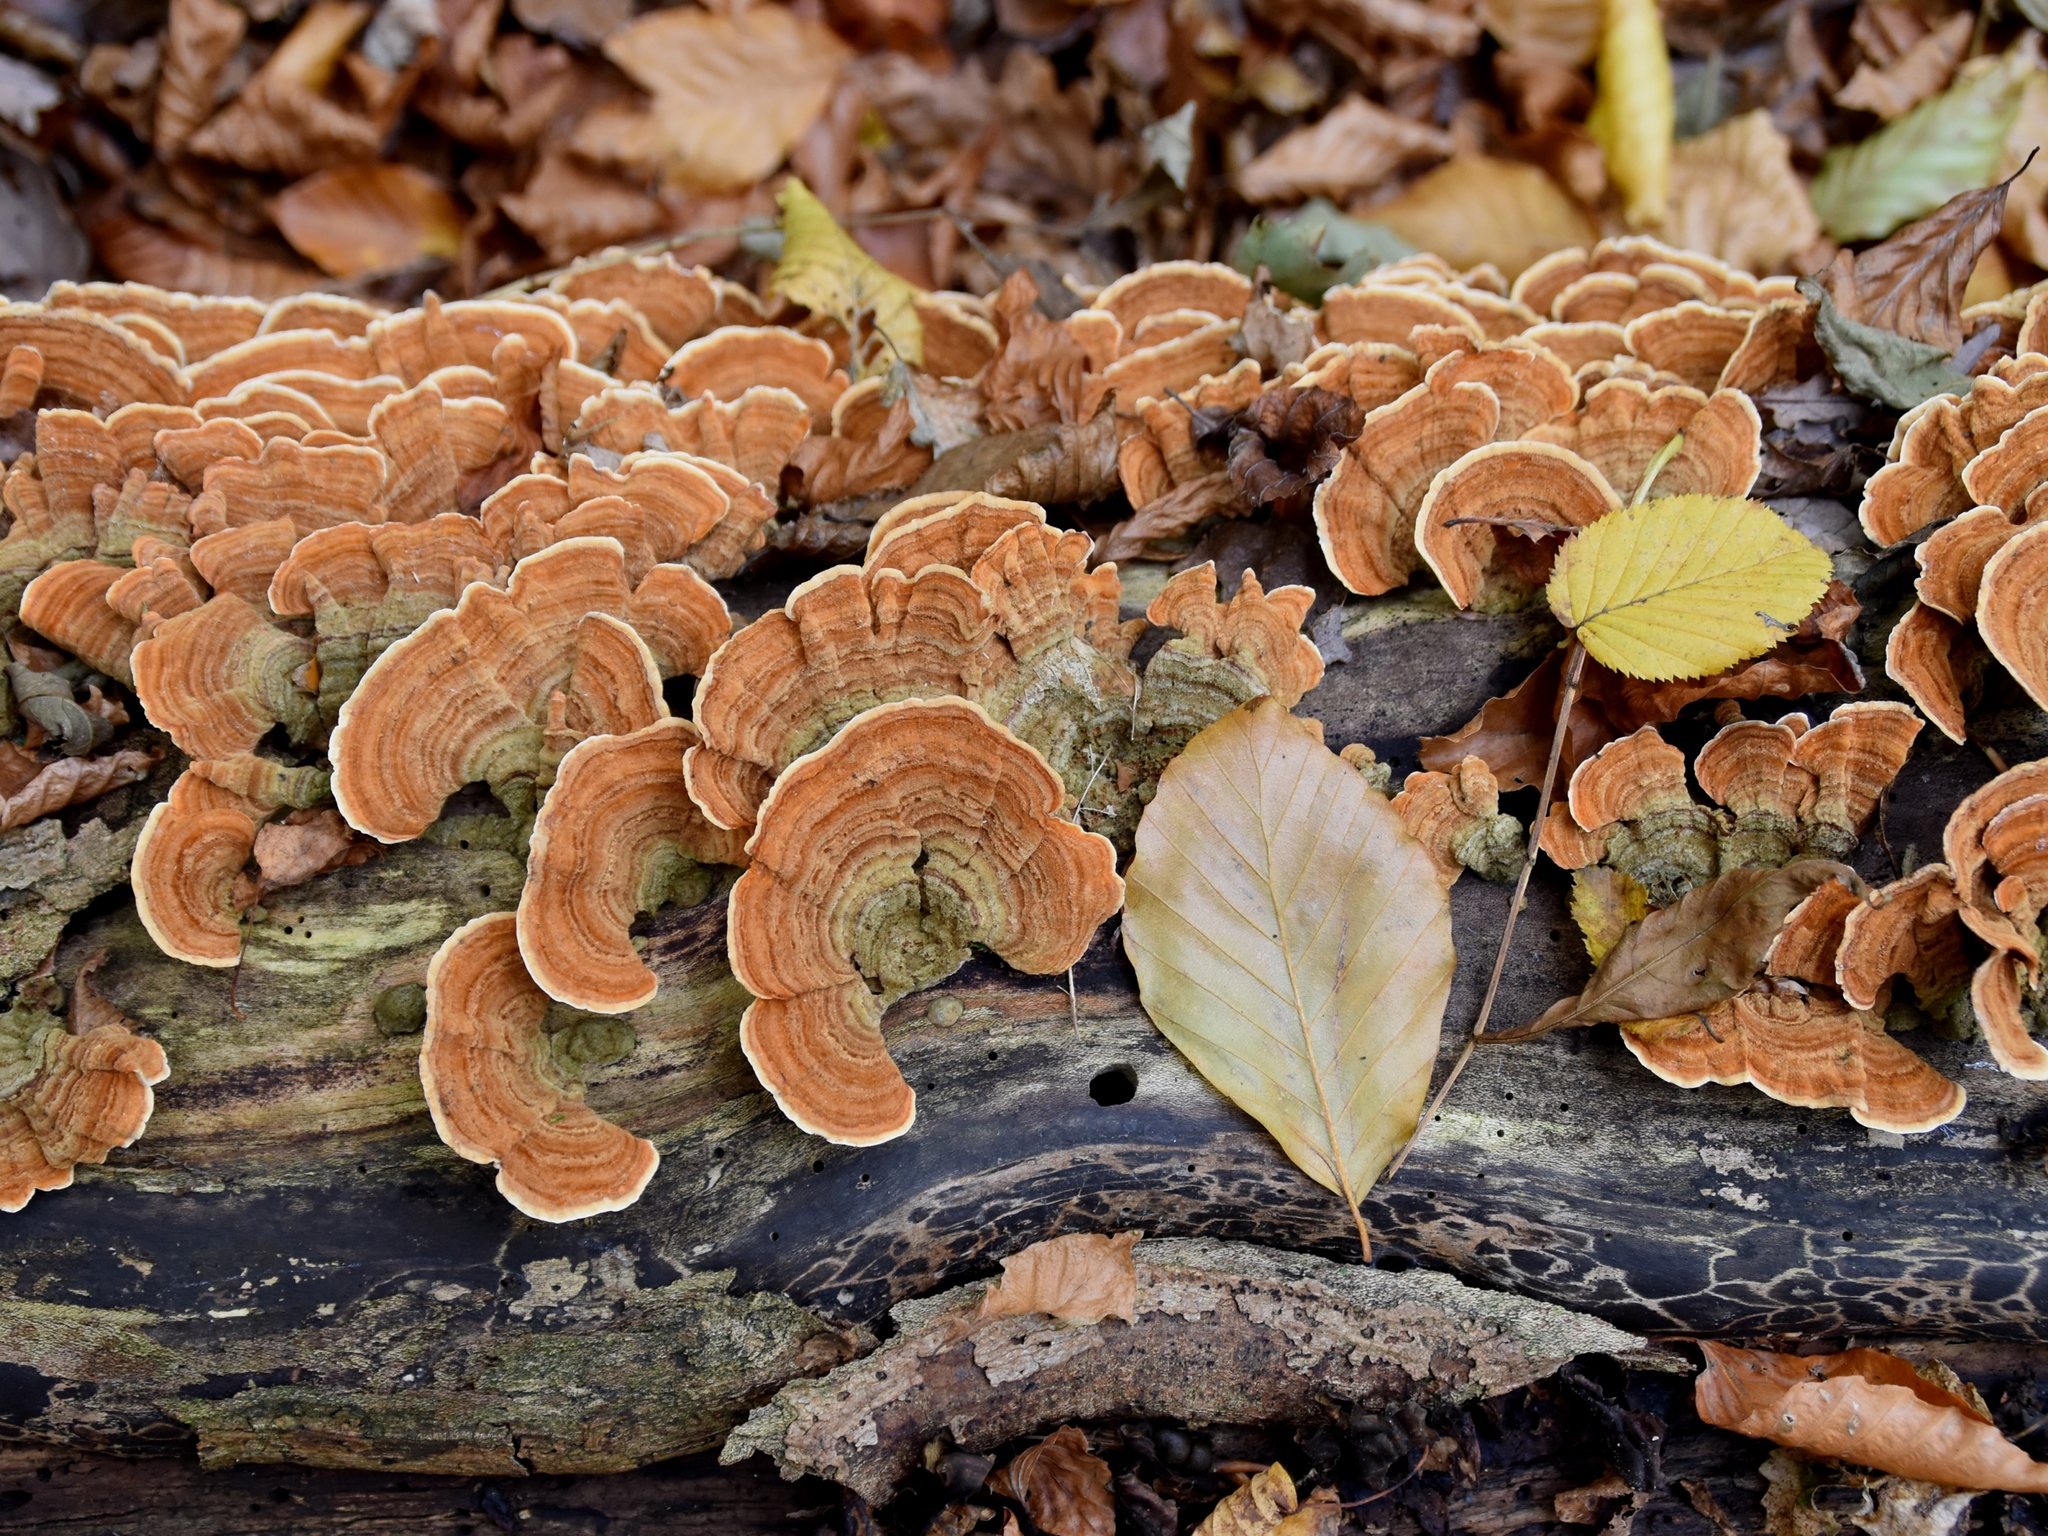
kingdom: Fungi
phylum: Basidiomycota
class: Agaricomycetes
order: Russulales
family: Stereaceae
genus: Stereum
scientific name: Stereum subtomentosum
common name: Yellowing curtain crust
